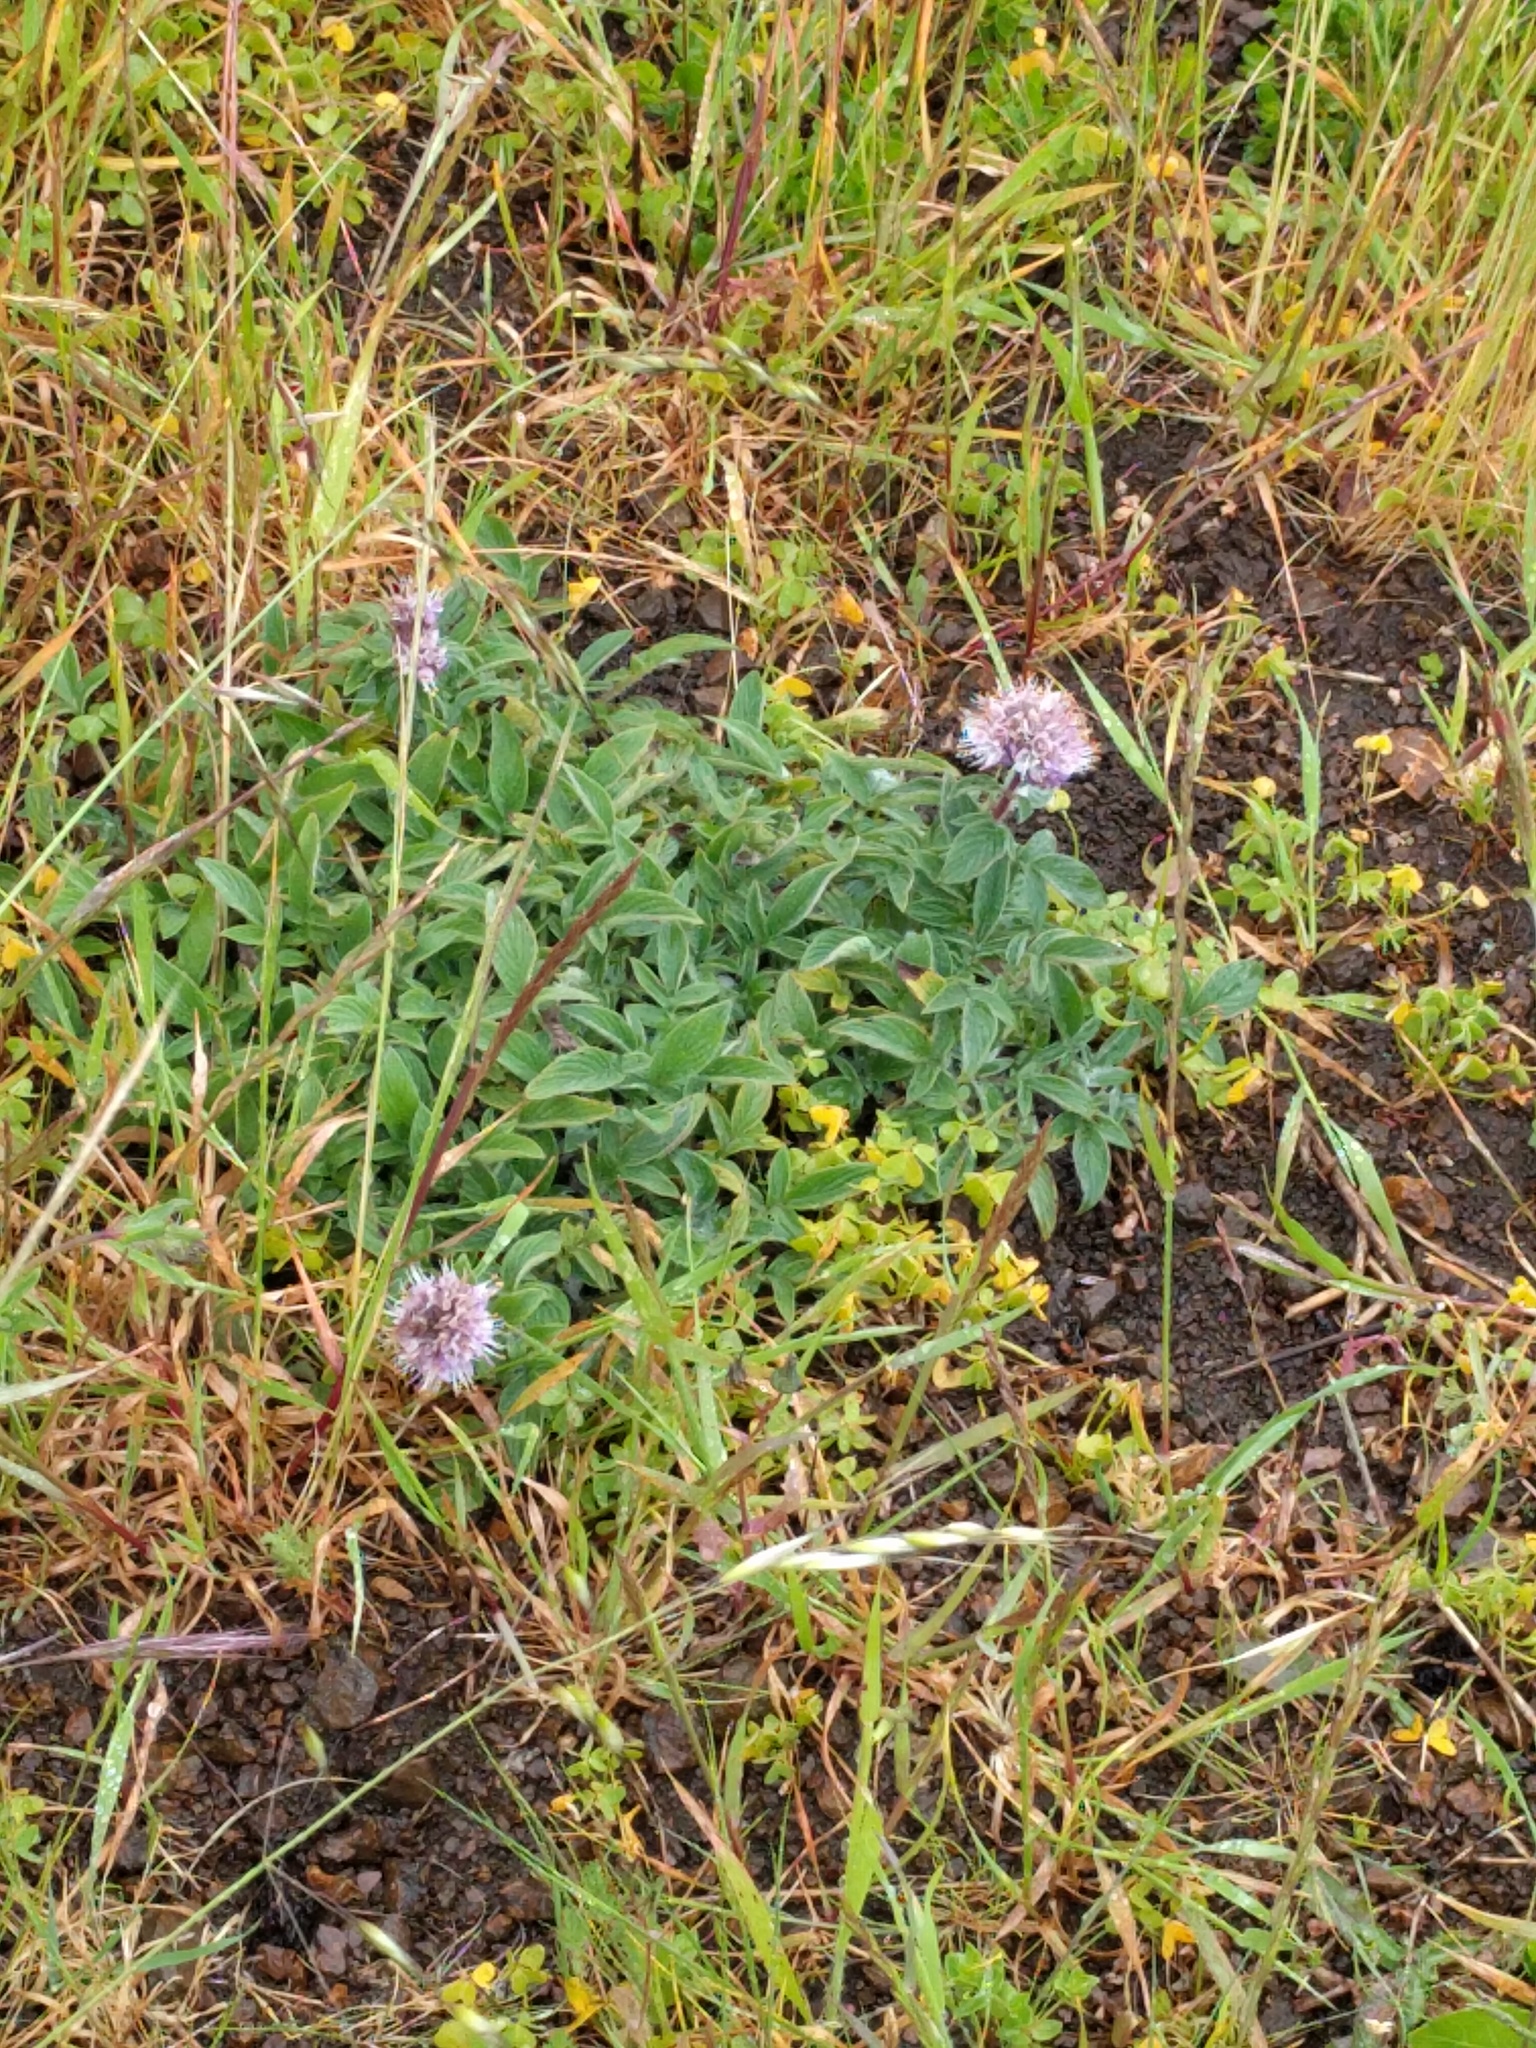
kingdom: Plantae
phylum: Tracheophyta
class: Magnoliopsida
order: Boraginales
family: Hydrophyllaceae
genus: Phacelia
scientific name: Phacelia californica
